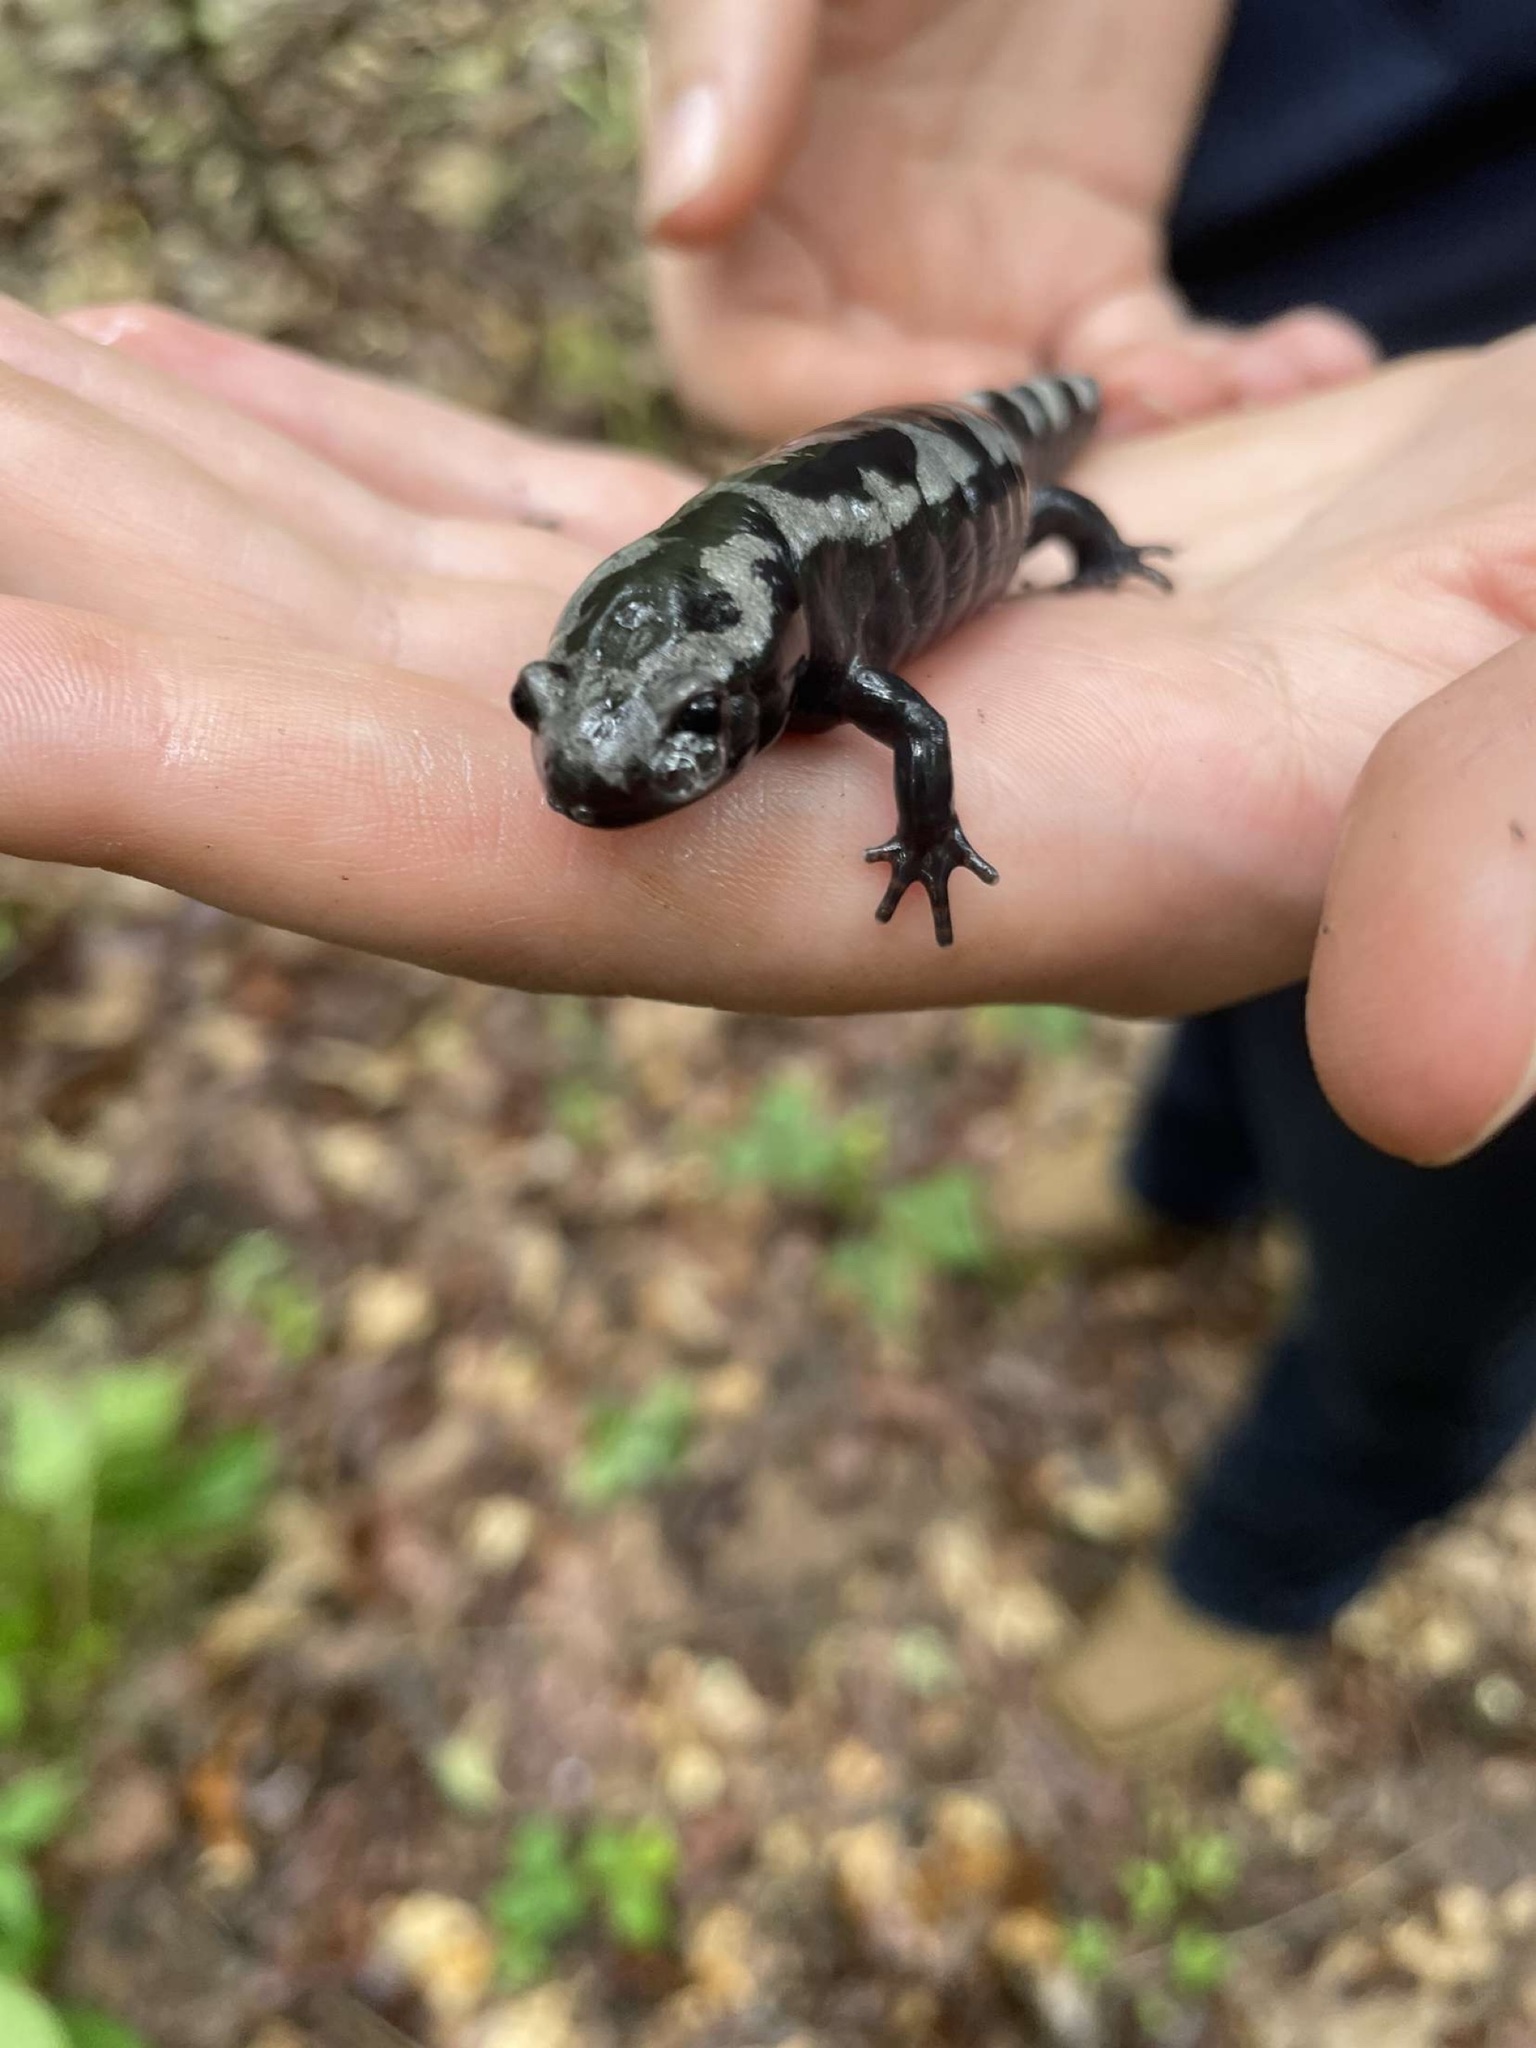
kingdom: Animalia
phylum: Chordata
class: Amphibia
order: Caudata
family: Ambystomatidae
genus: Ambystoma
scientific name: Ambystoma opacum
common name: Marbled salamander
